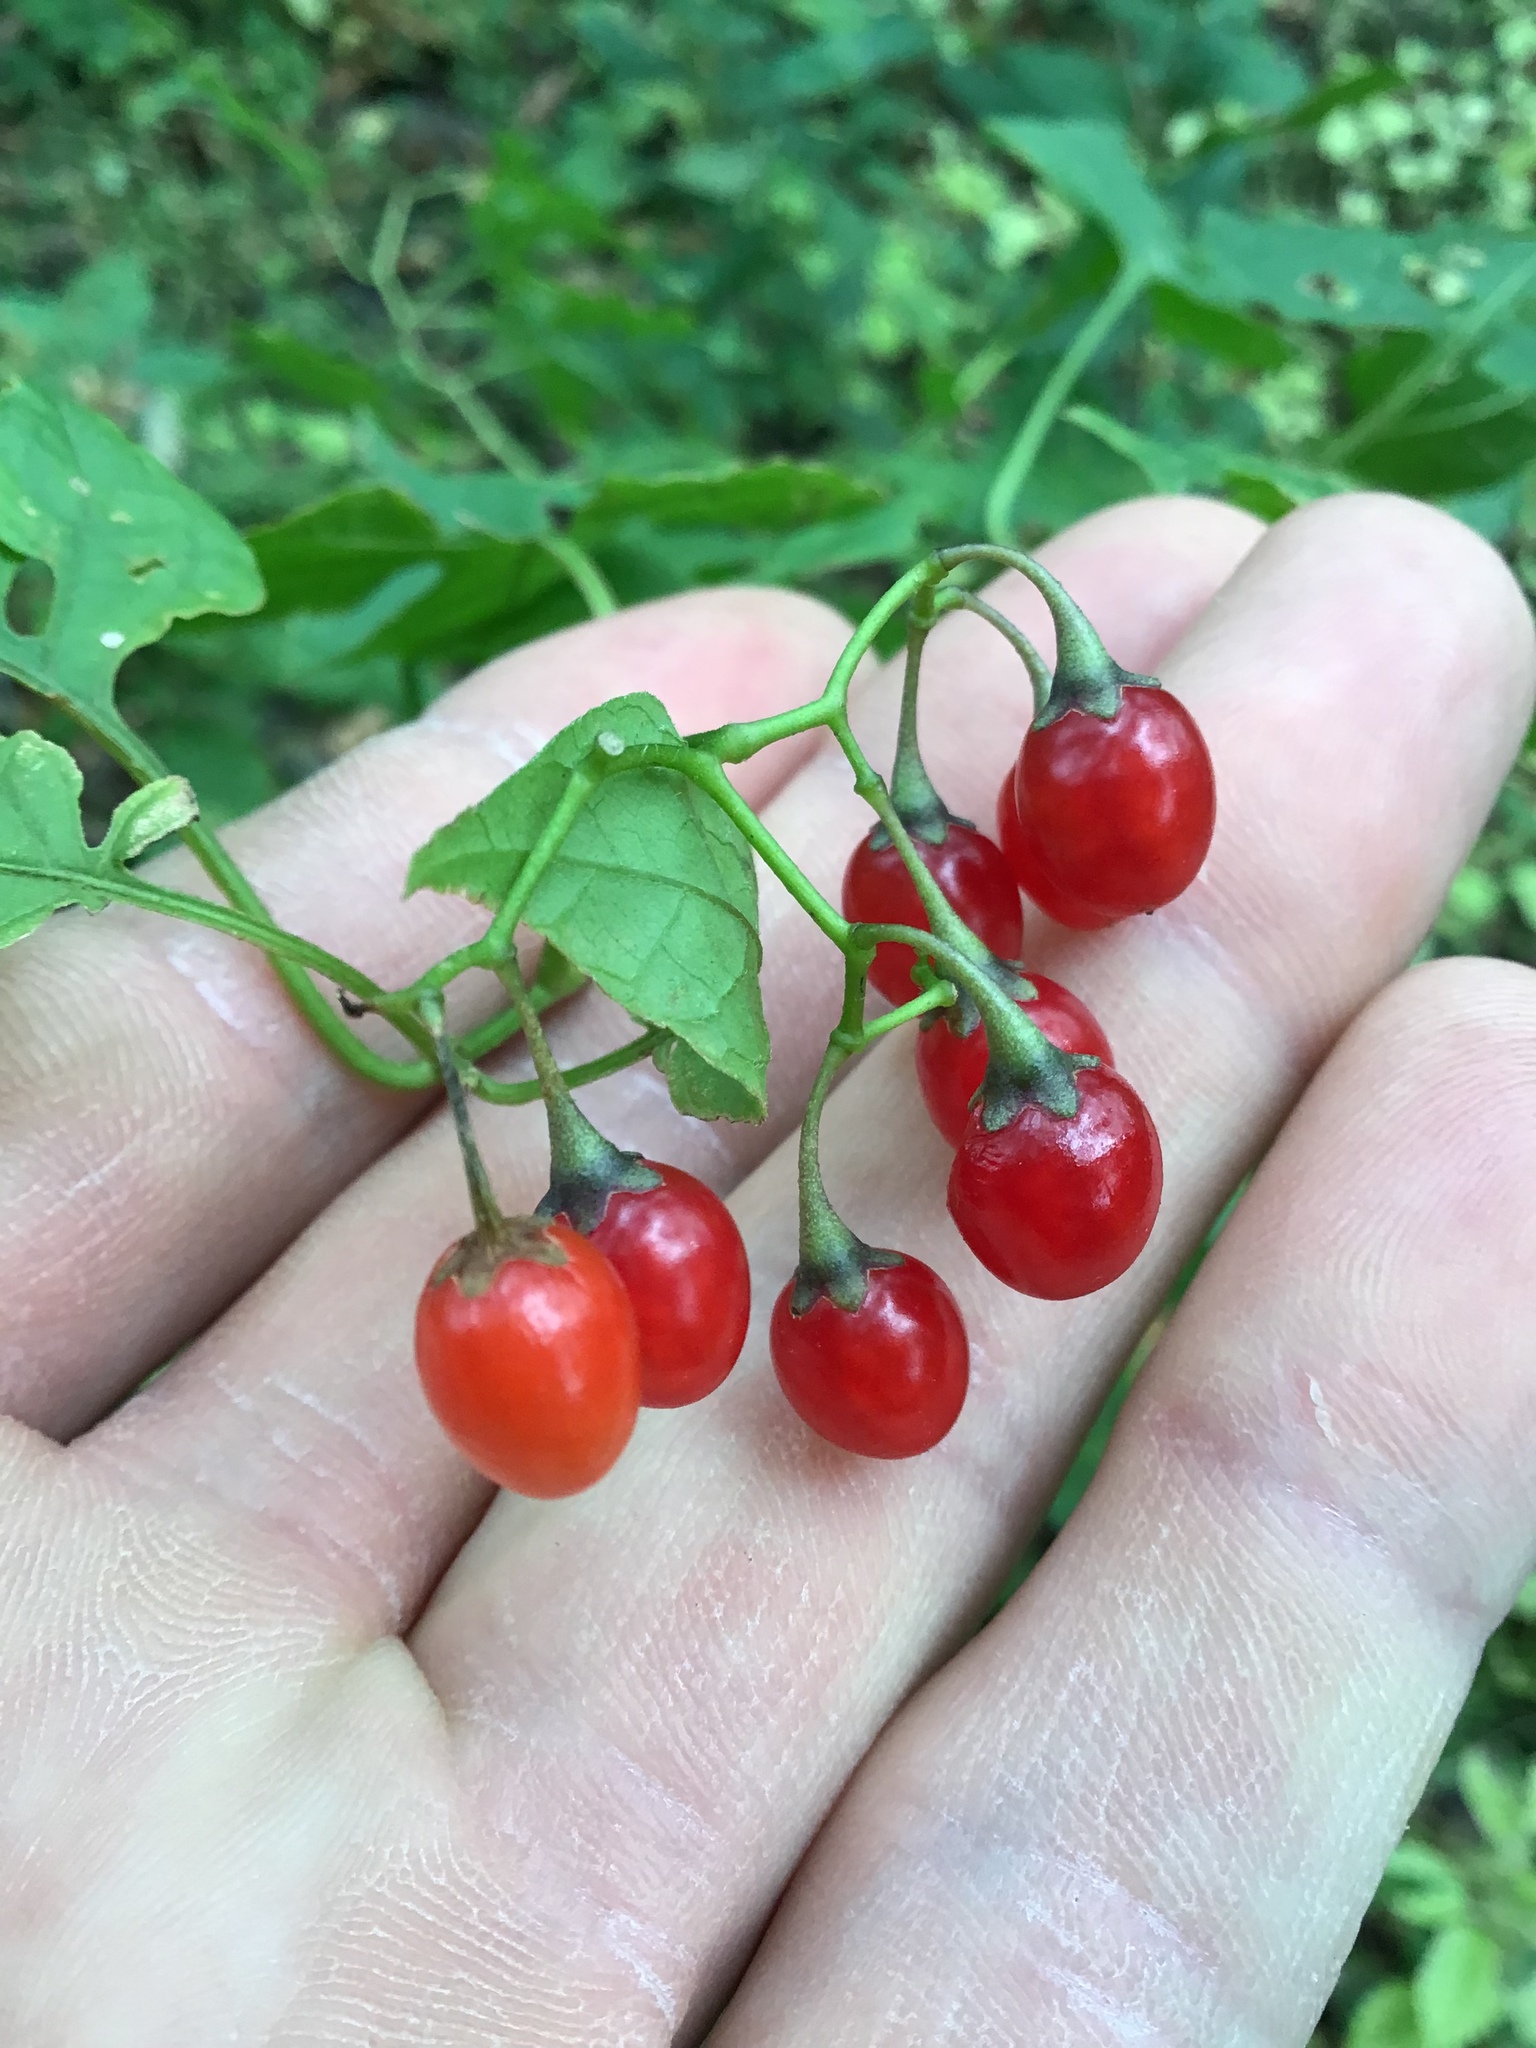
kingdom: Plantae
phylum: Tracheophyta
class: Magnoliopsida
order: Solanales
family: Solanaceae
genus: Solanum
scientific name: Solanum dulcamara
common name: Climbing nightshade
